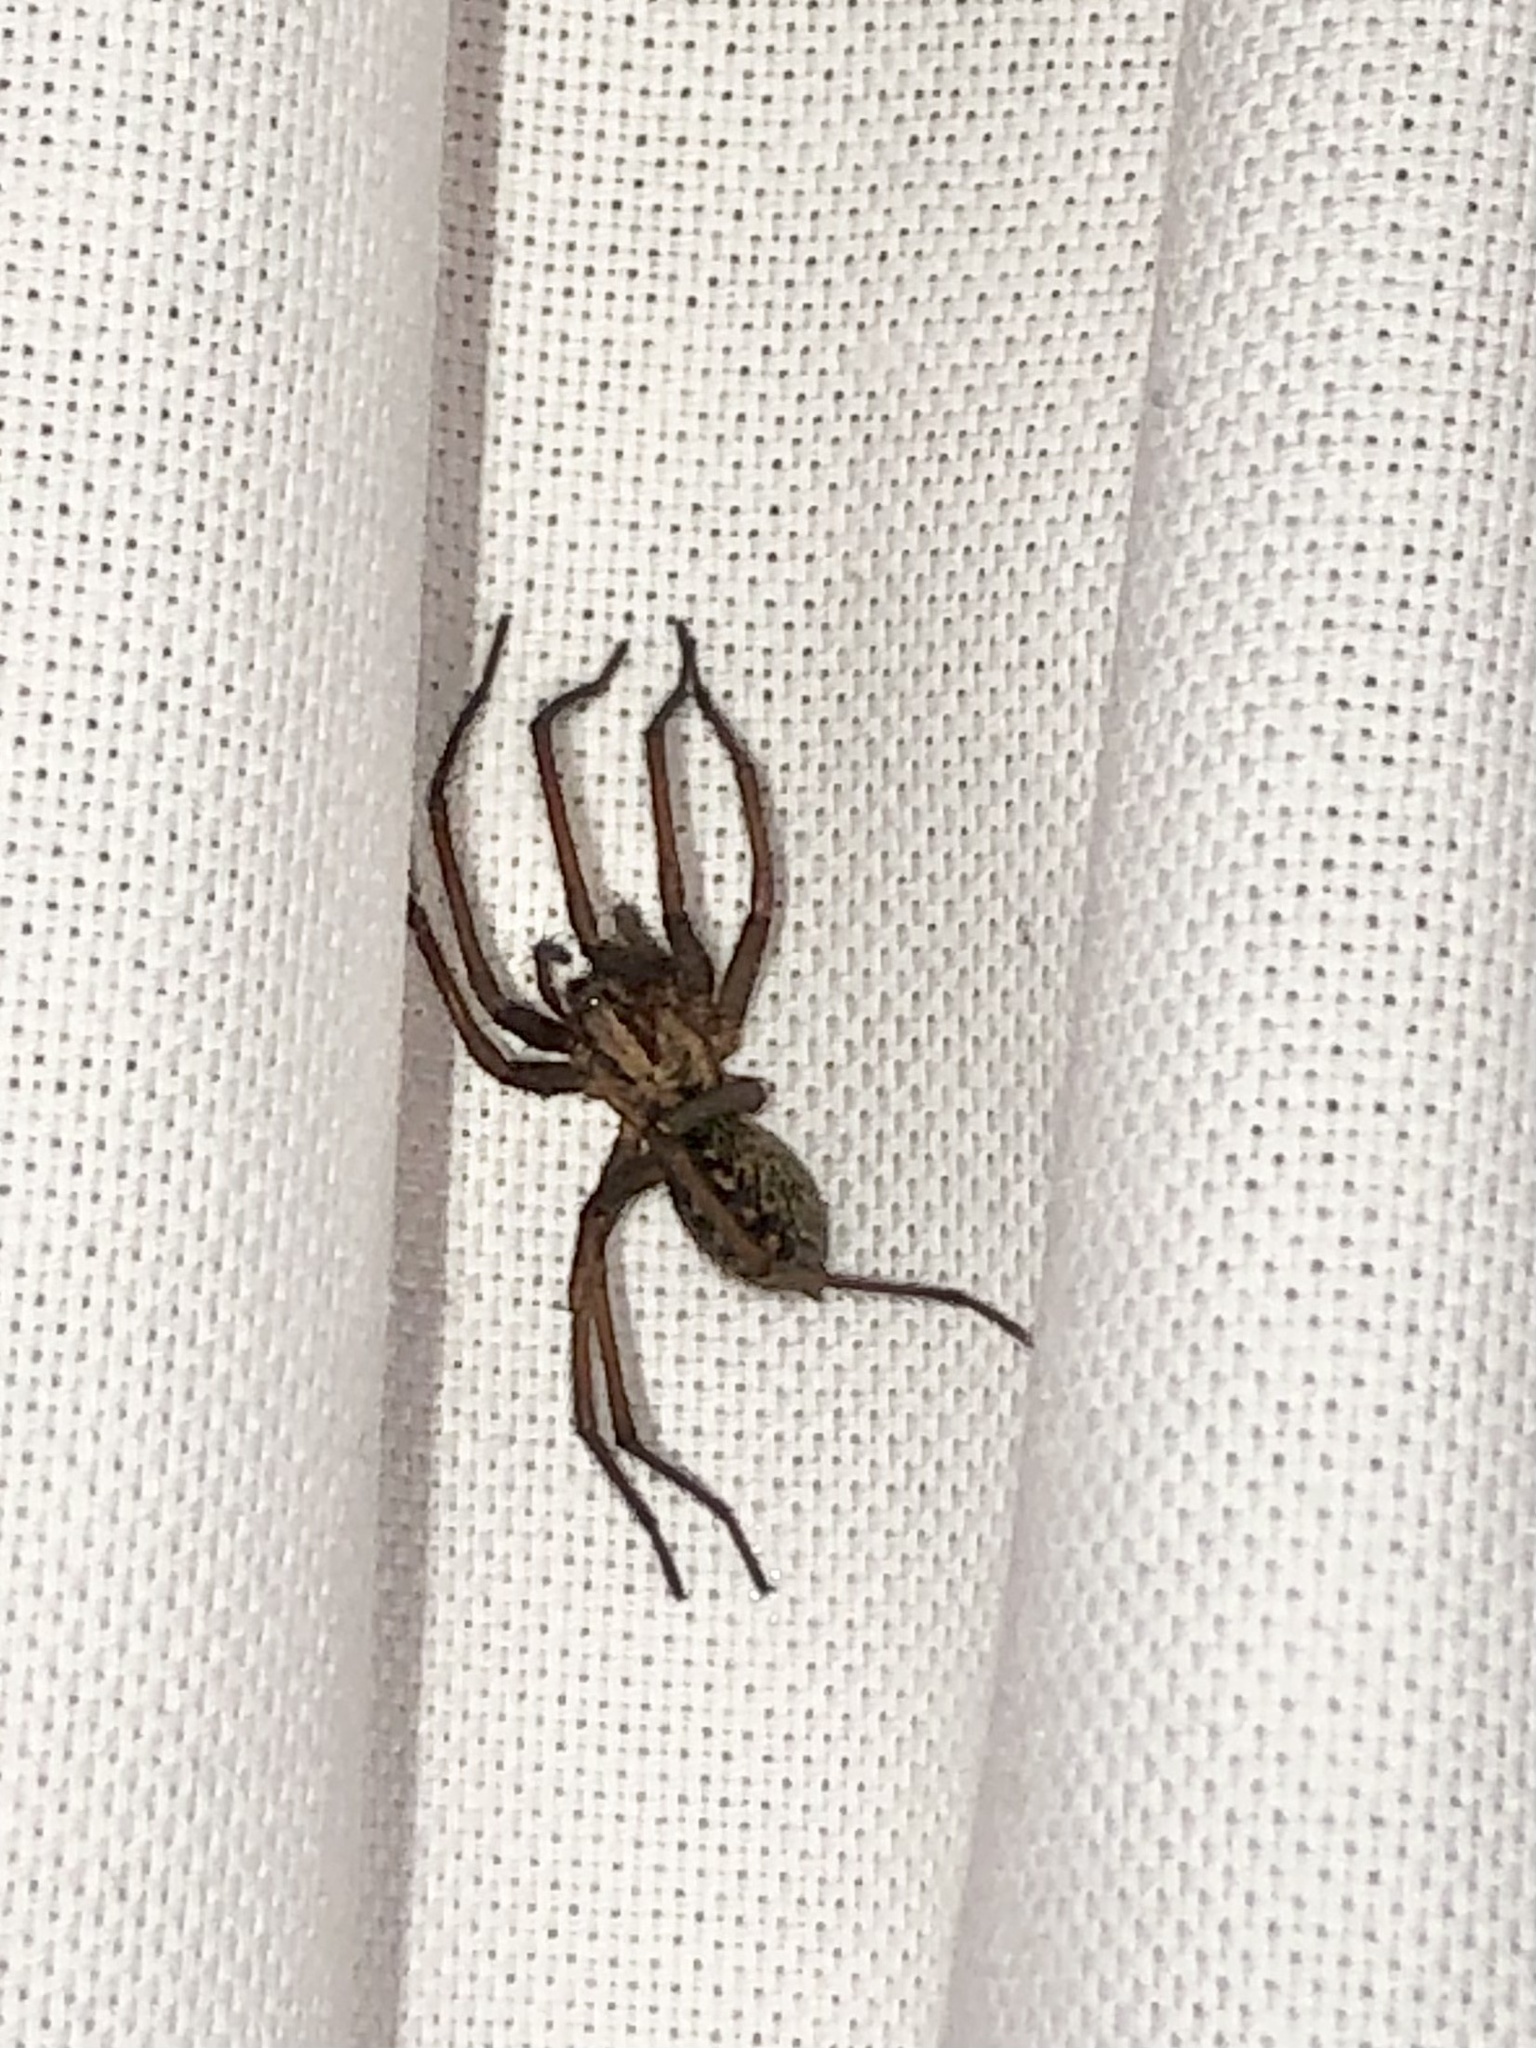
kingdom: Animalia
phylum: Arthropoda
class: Arachnida
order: Araneae
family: Agelenidae
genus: Eratigena
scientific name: Eratigena duellica
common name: Giant house spider
